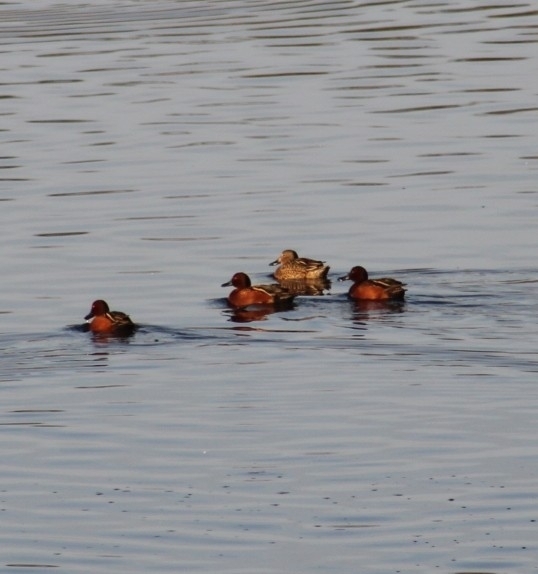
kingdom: Animalia
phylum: Chordata
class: Aves
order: Anseriformes
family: Anatidae
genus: Spatula
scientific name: Spatula cyanoptera
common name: Cinnamon teal
